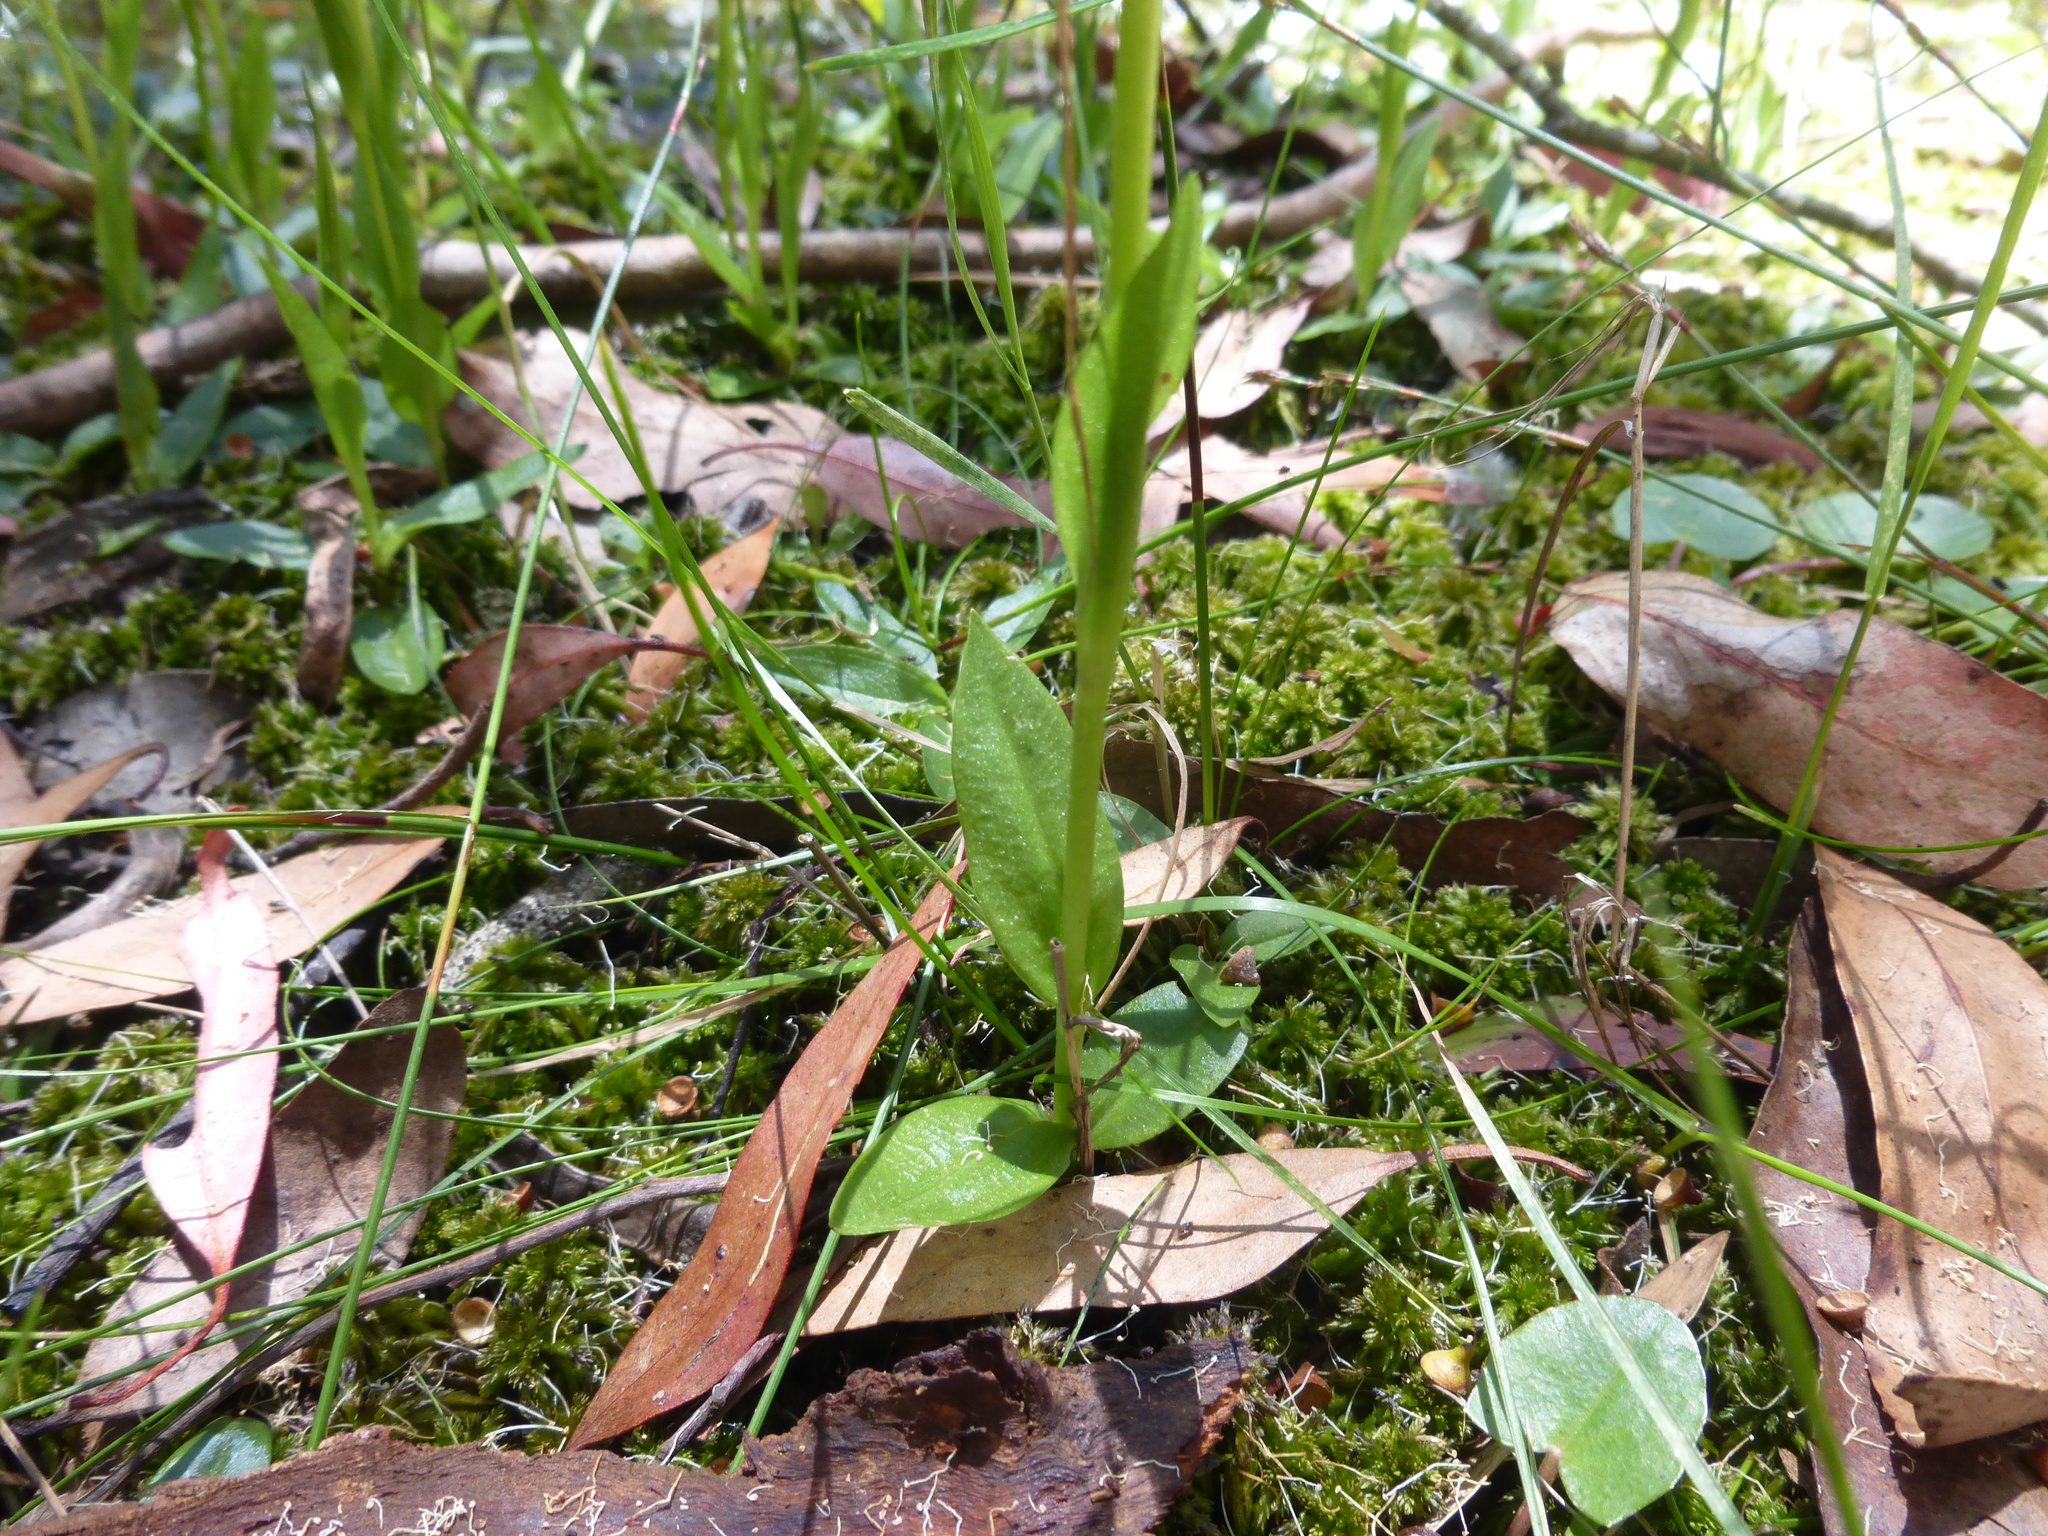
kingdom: Plantae
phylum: Tracheophyta
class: Liliopsida
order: Asparagales
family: Orchidaceae
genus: Pterostylis
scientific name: Pterostylis falcata
